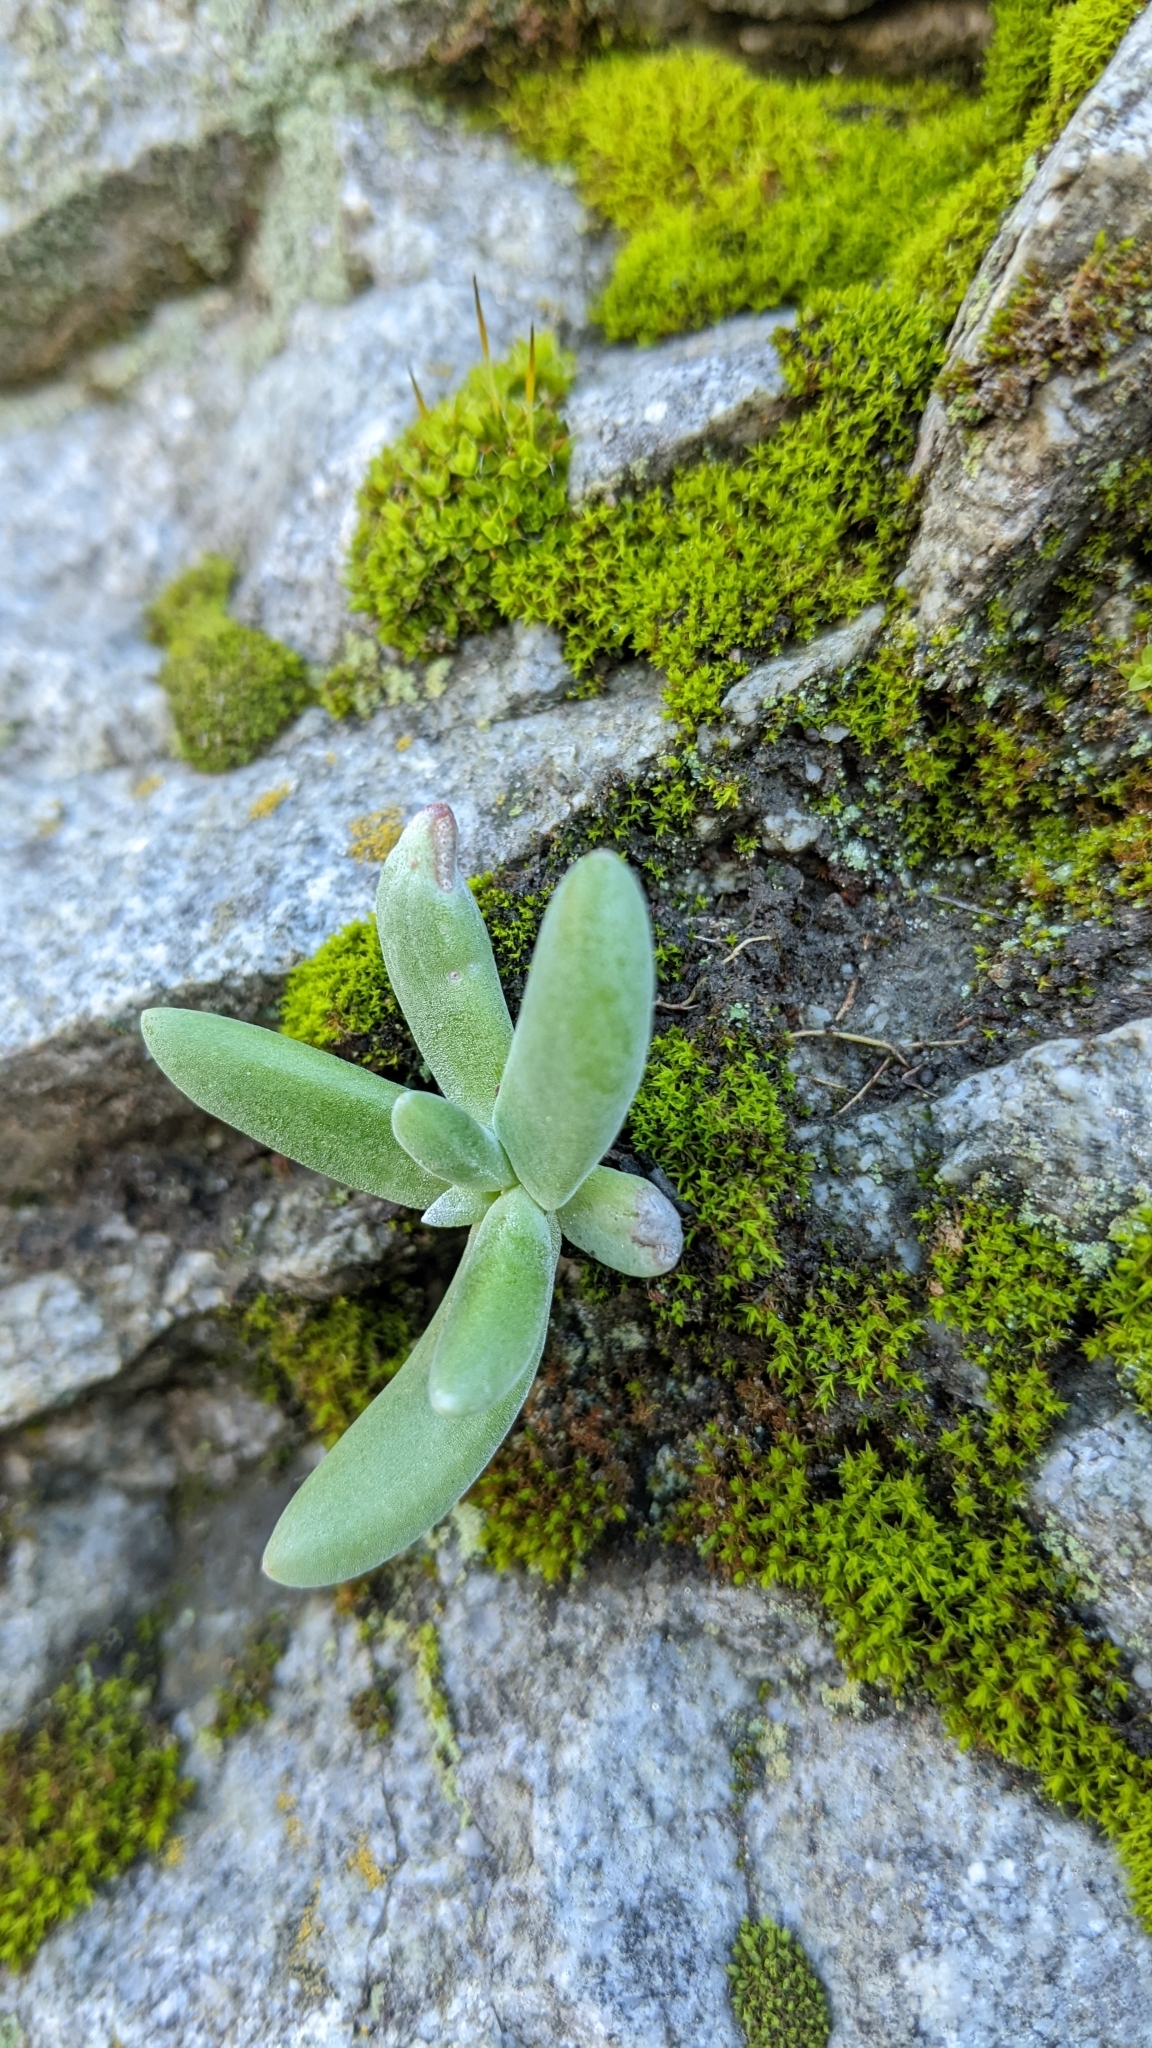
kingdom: Plantae
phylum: Tracheophyta
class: Magnoliopsida
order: Saxifragales
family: Crassulaceae
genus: Dudleya
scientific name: Dudleya densiflora
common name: San gabriel mountains dudleya
